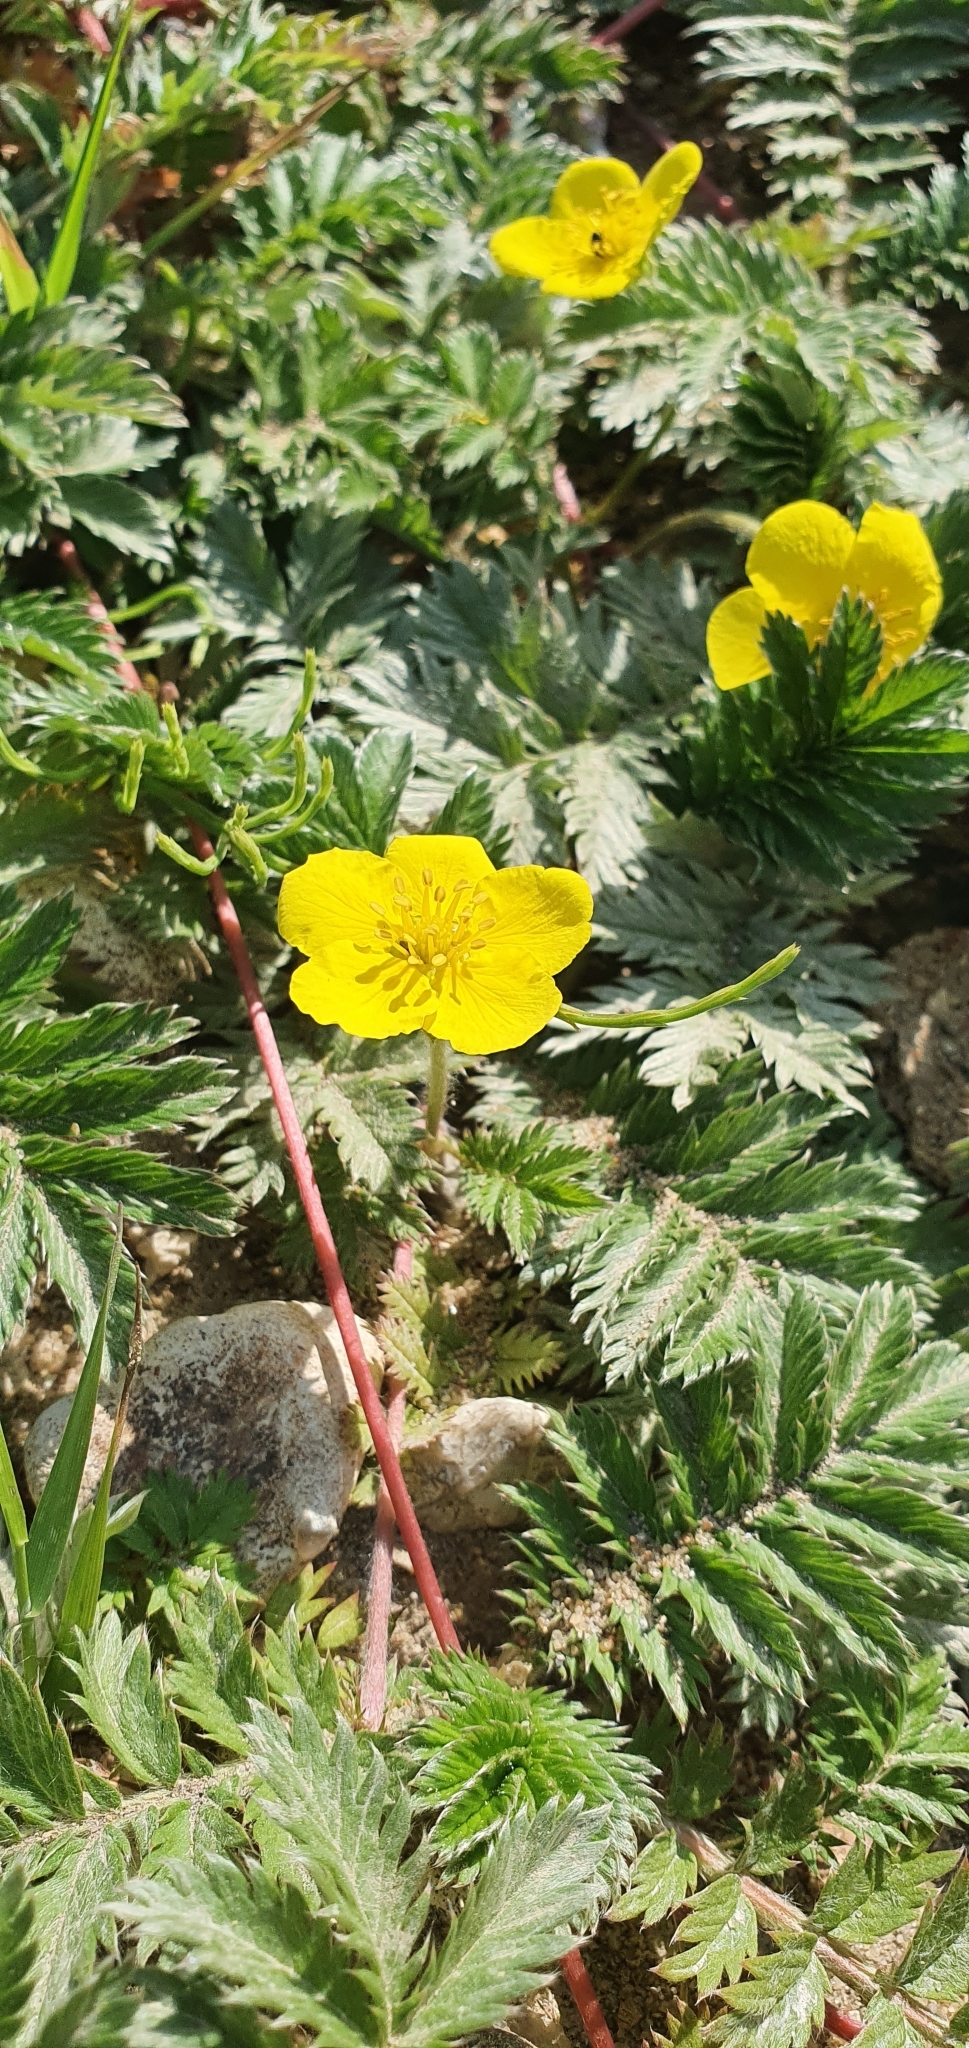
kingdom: Plantae
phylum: Tracheophyta
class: Magnoliopsida
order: Rosales
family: Rosaceae
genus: Argentina
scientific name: Argentina anserina
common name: Common silverweed
